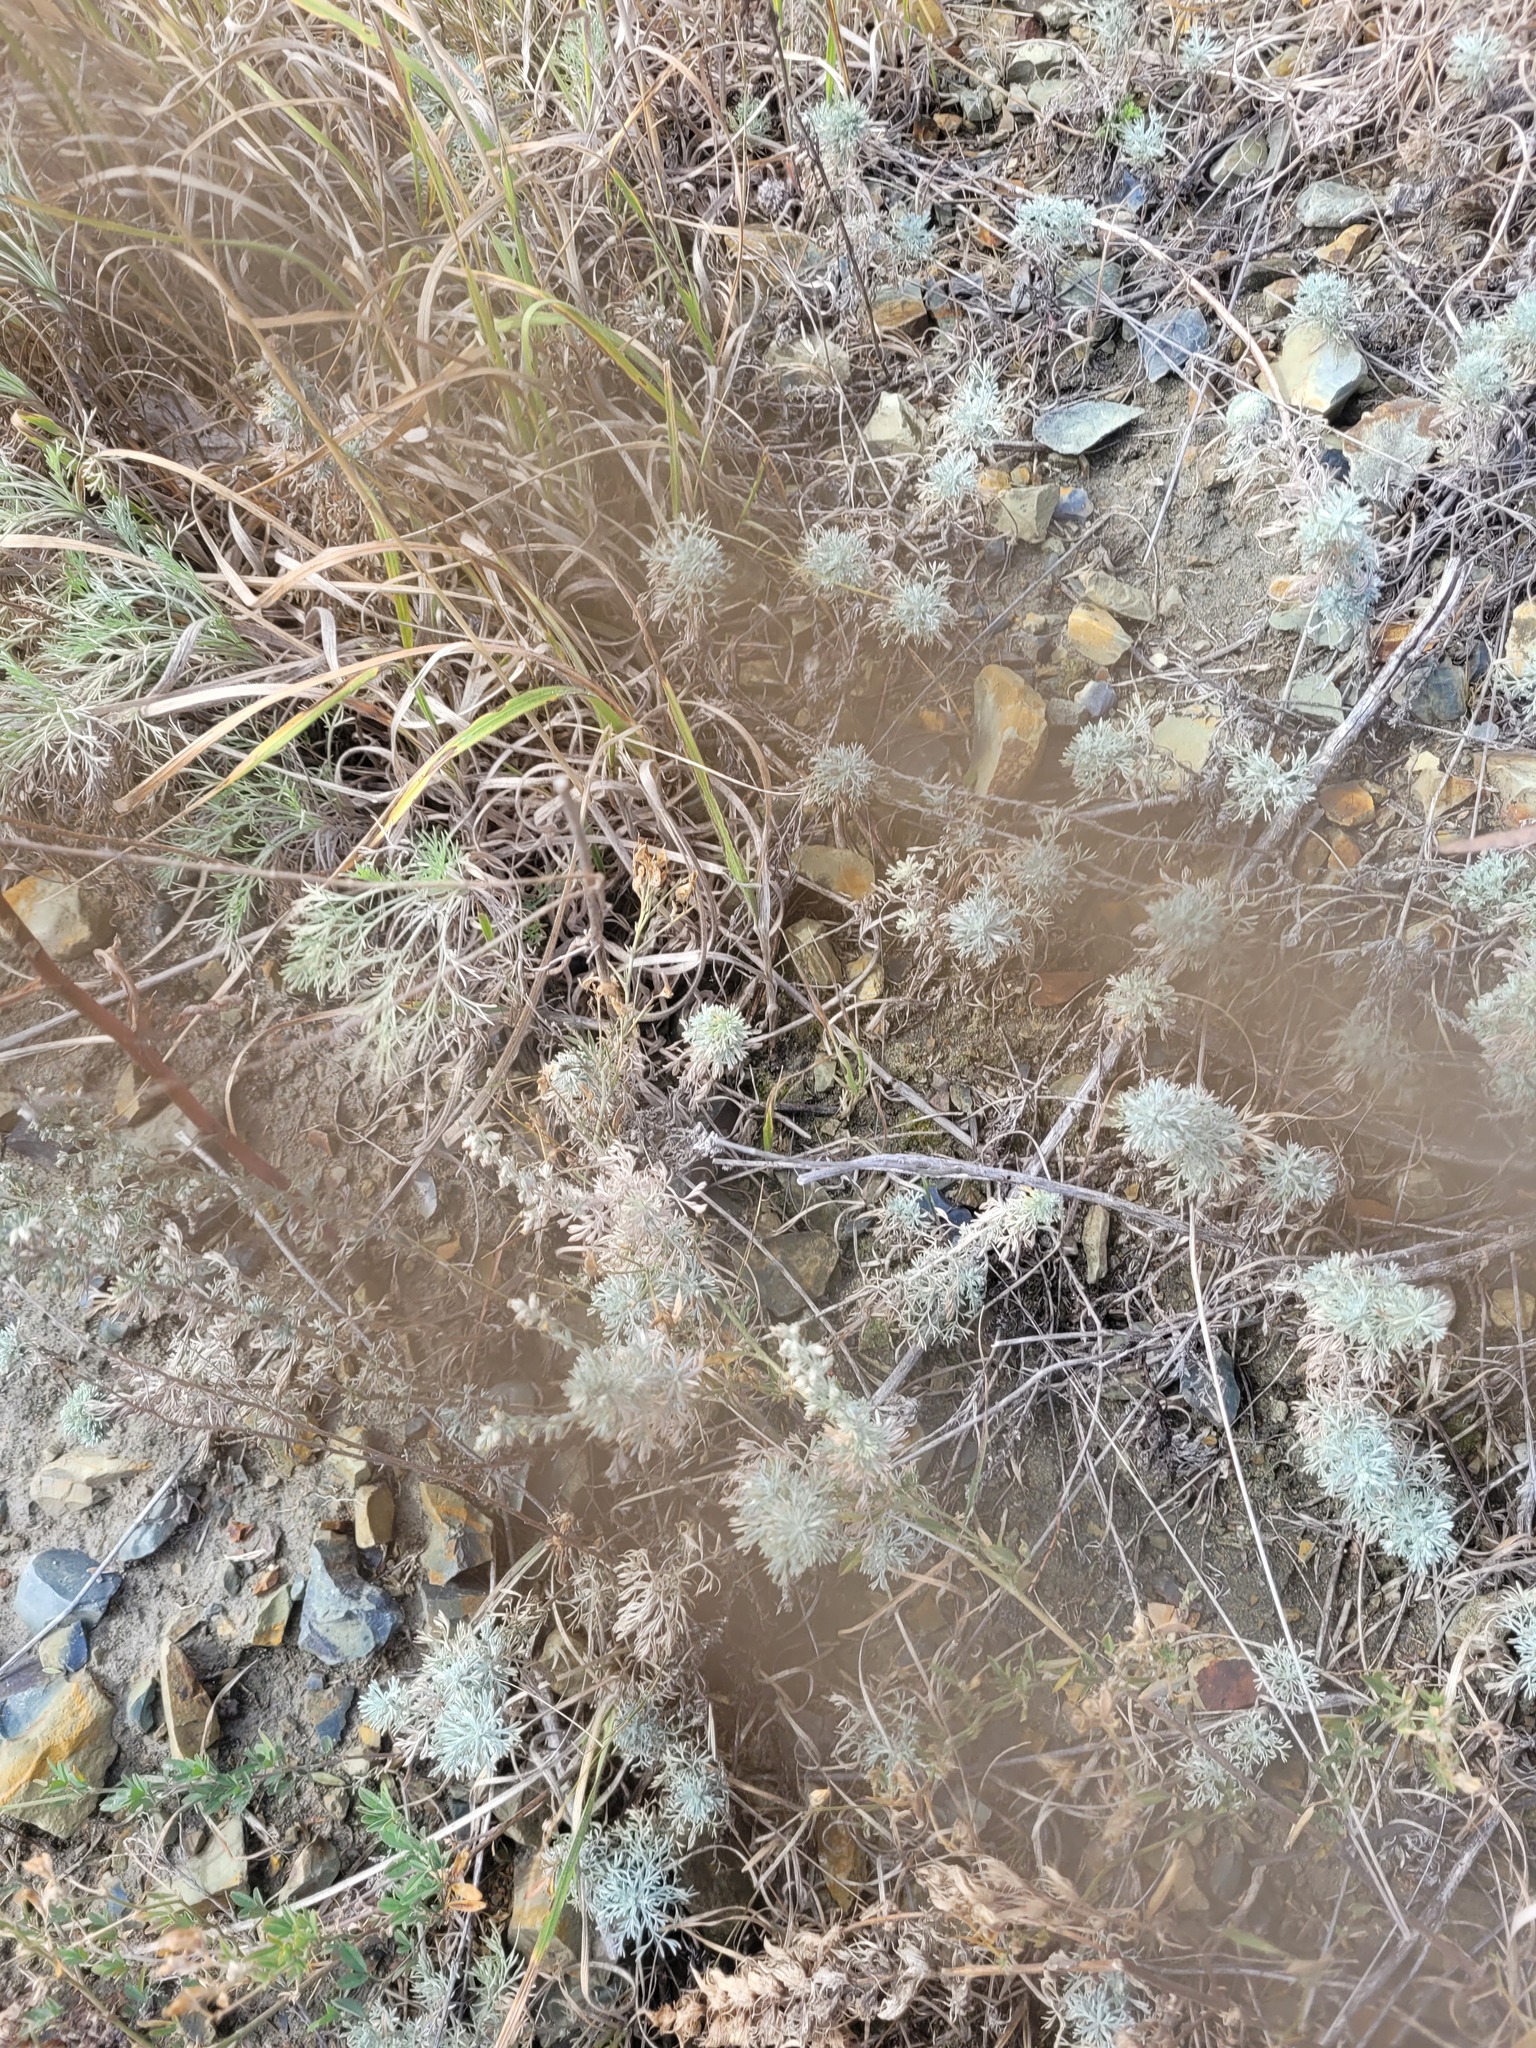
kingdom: Plantae
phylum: Tracheophyta
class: Magnoliopsida
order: Asterales
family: Asteraceae
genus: Artemisia
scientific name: Artemisia austriaca
